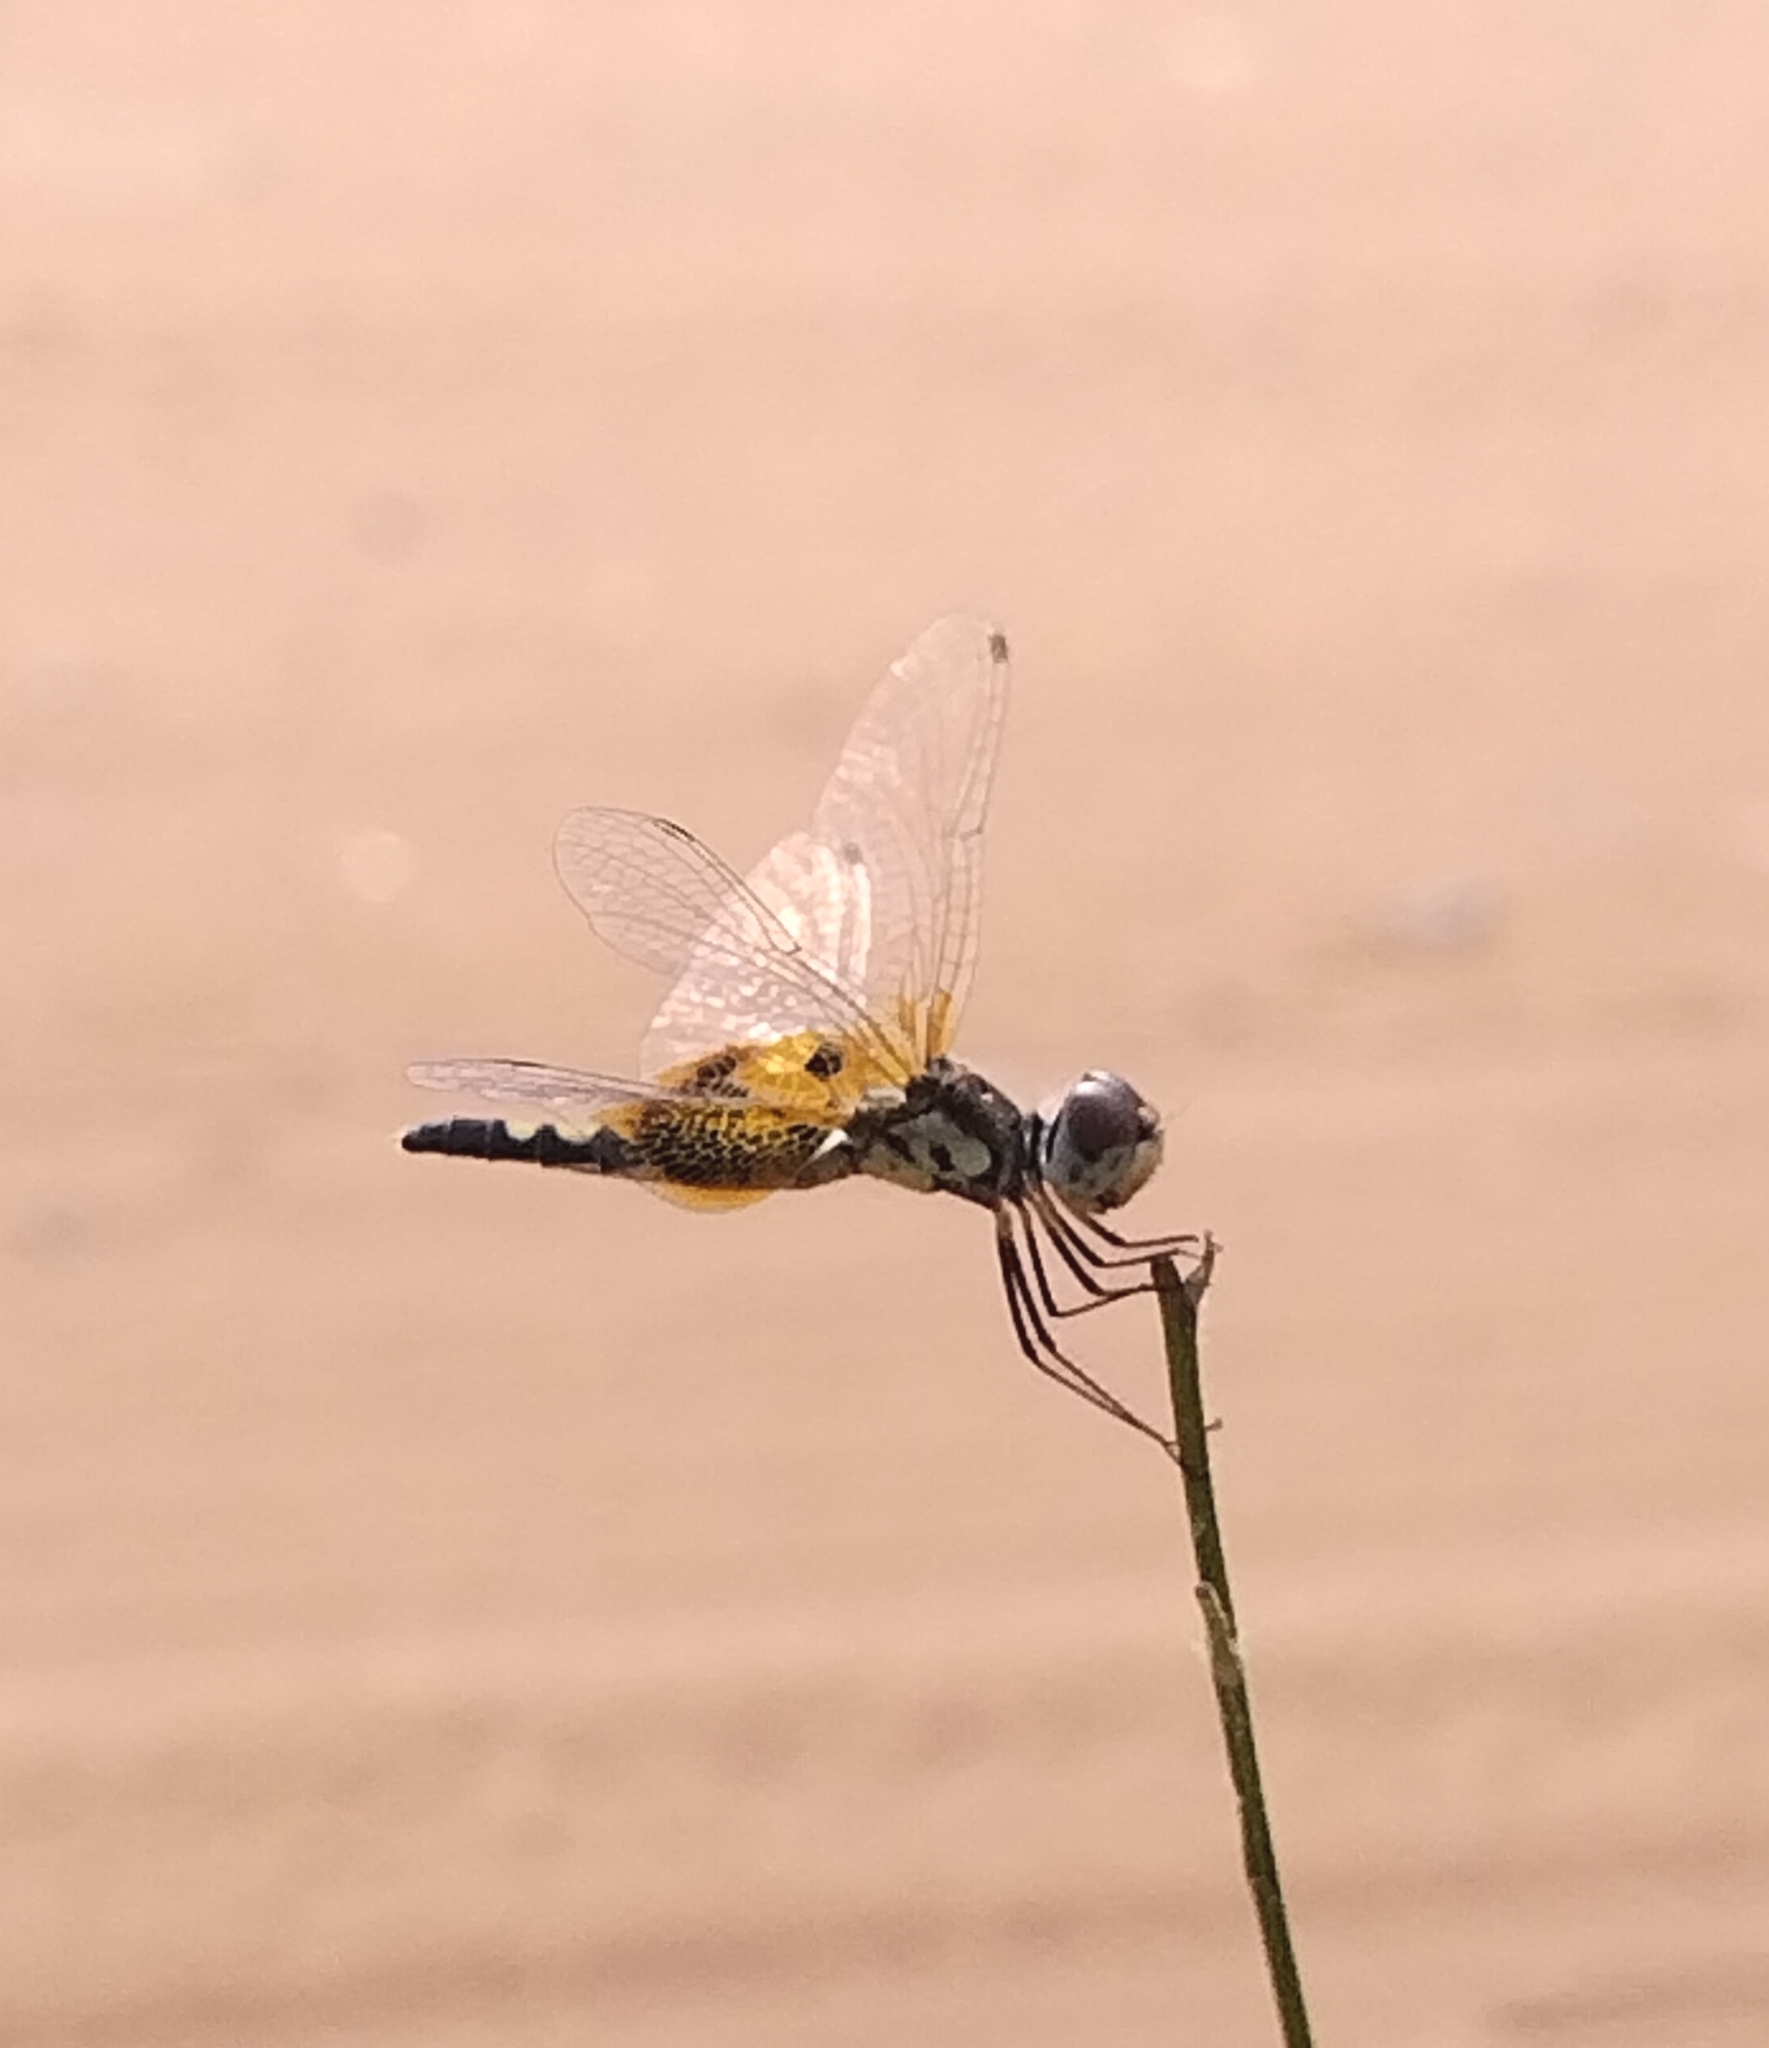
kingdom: Animalia
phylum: Arthropoda
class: Insecta
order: Odonata
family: Libellulidae
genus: Celithemis
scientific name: Celithemis amanda
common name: Amanda's pennant
